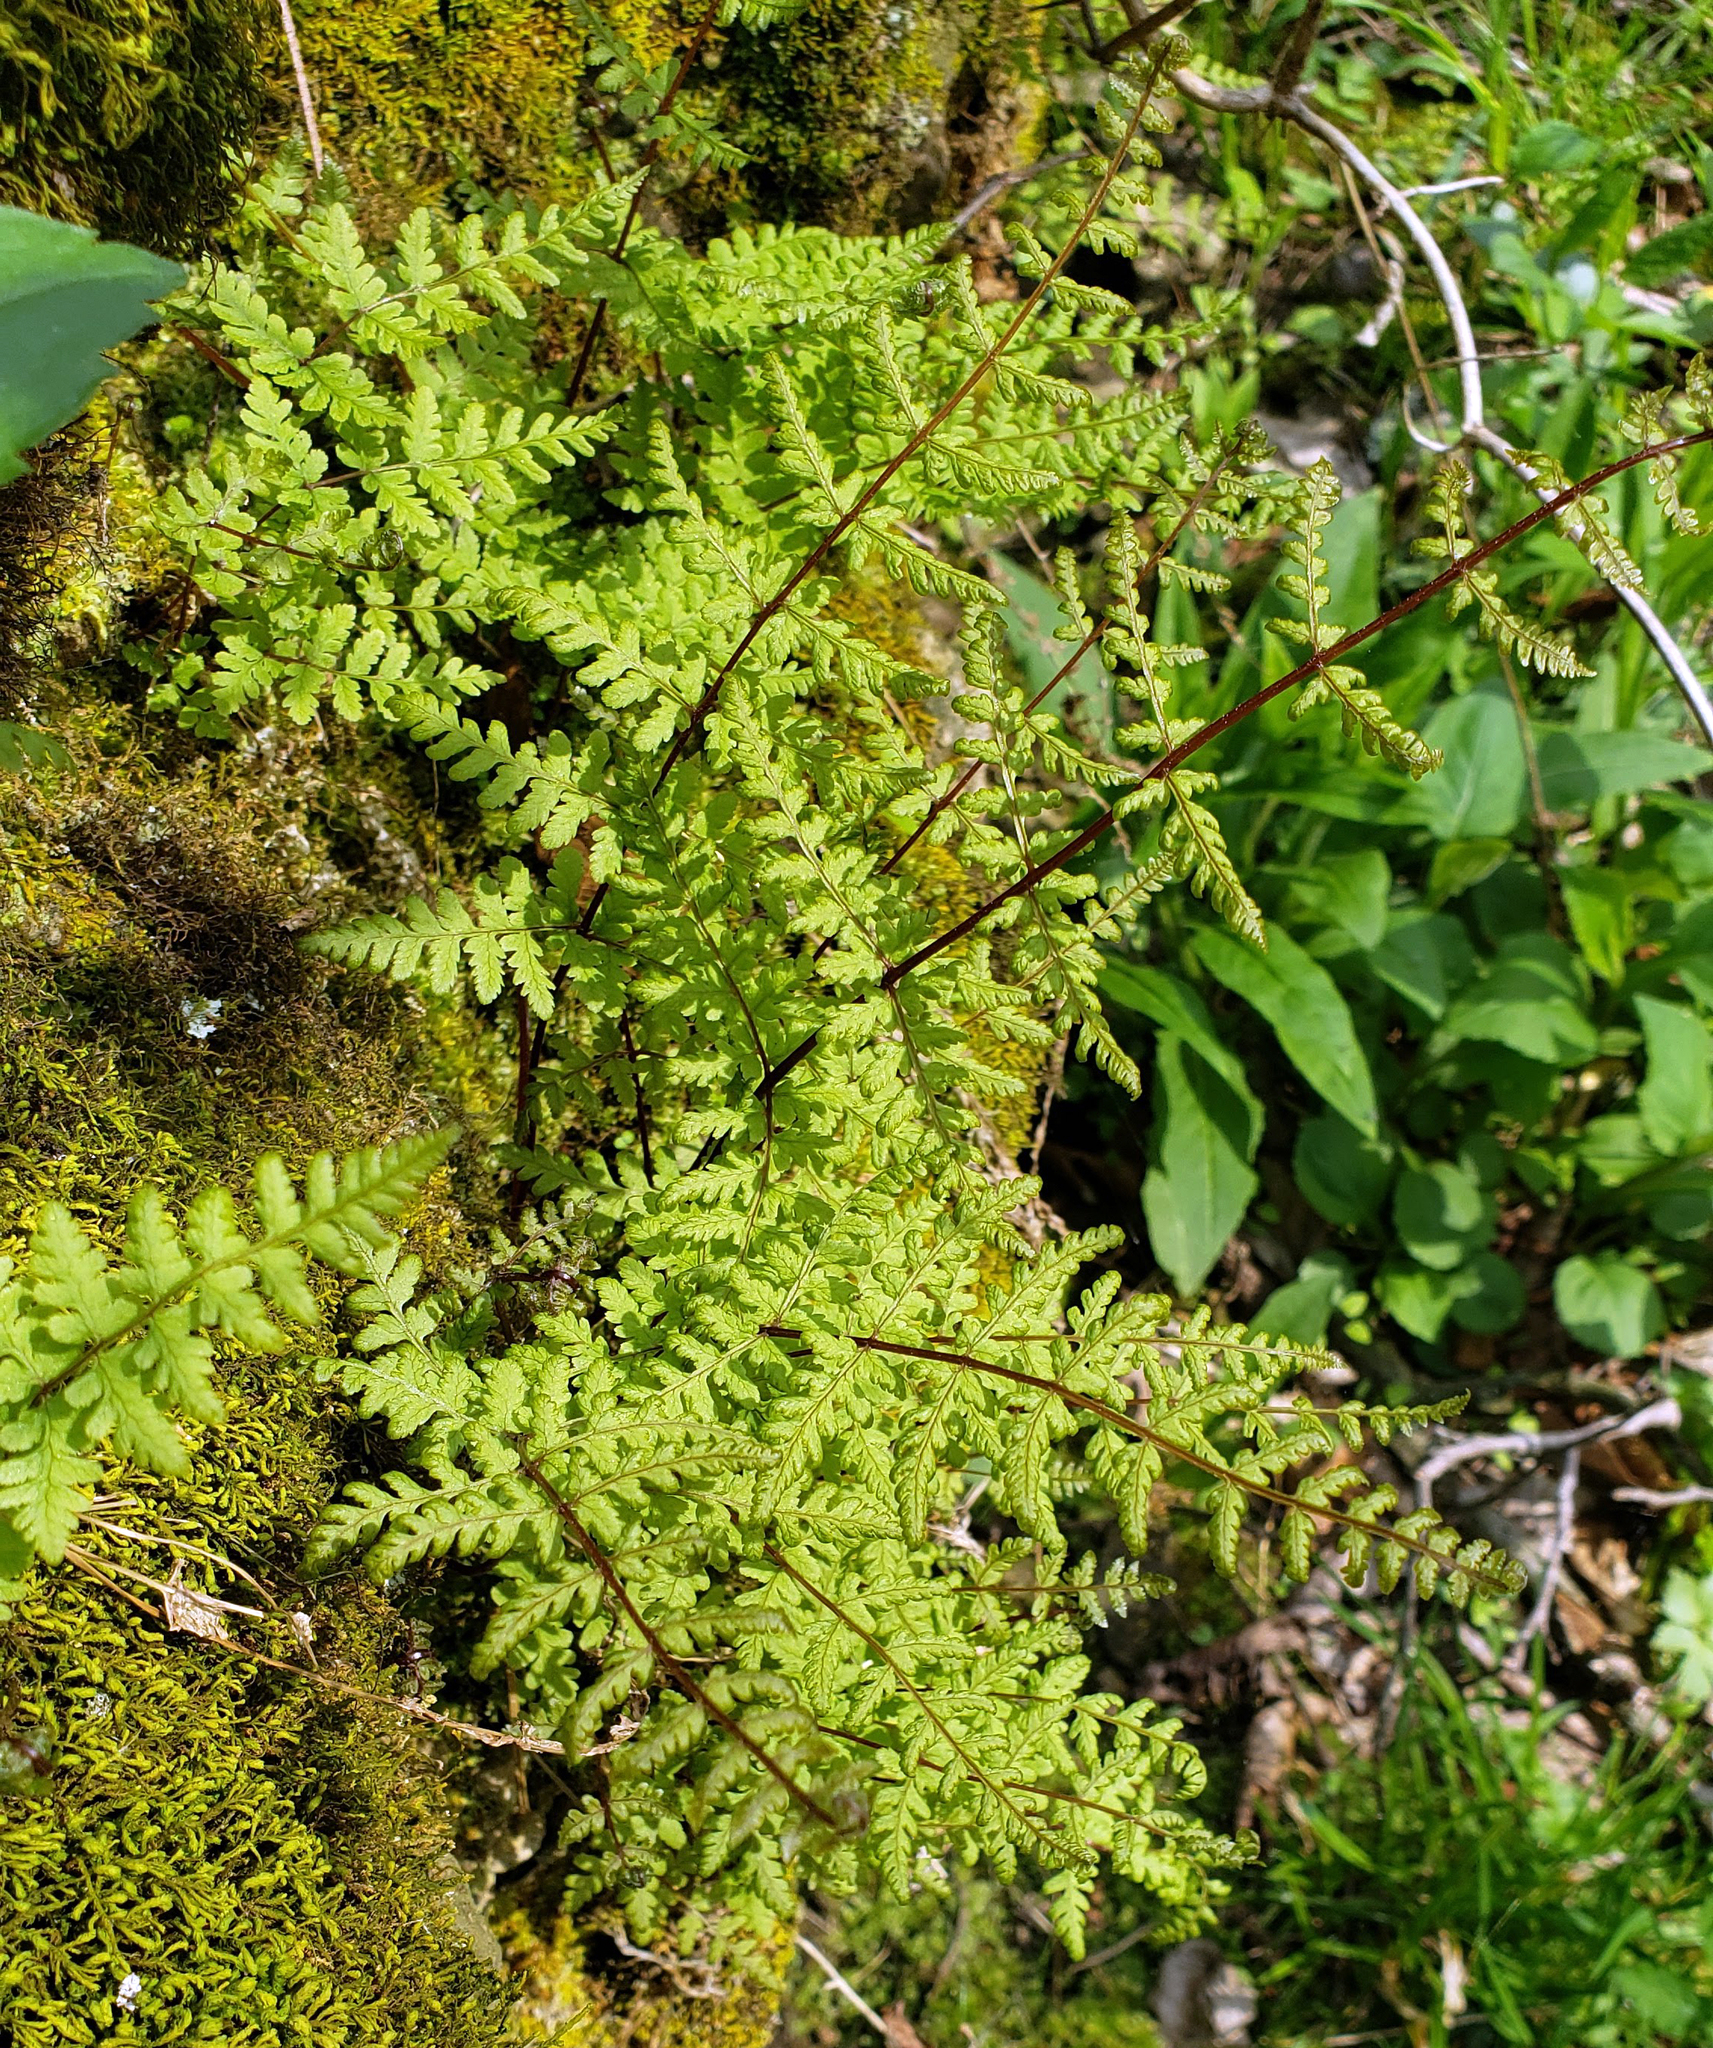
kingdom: Plantae
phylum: Tracheophyta
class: Polypodiopsida
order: Polypodiales
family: Cystopteridaceae
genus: Cystopteris
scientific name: Cystopteris bulbifera
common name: Bulblet bladder fern
